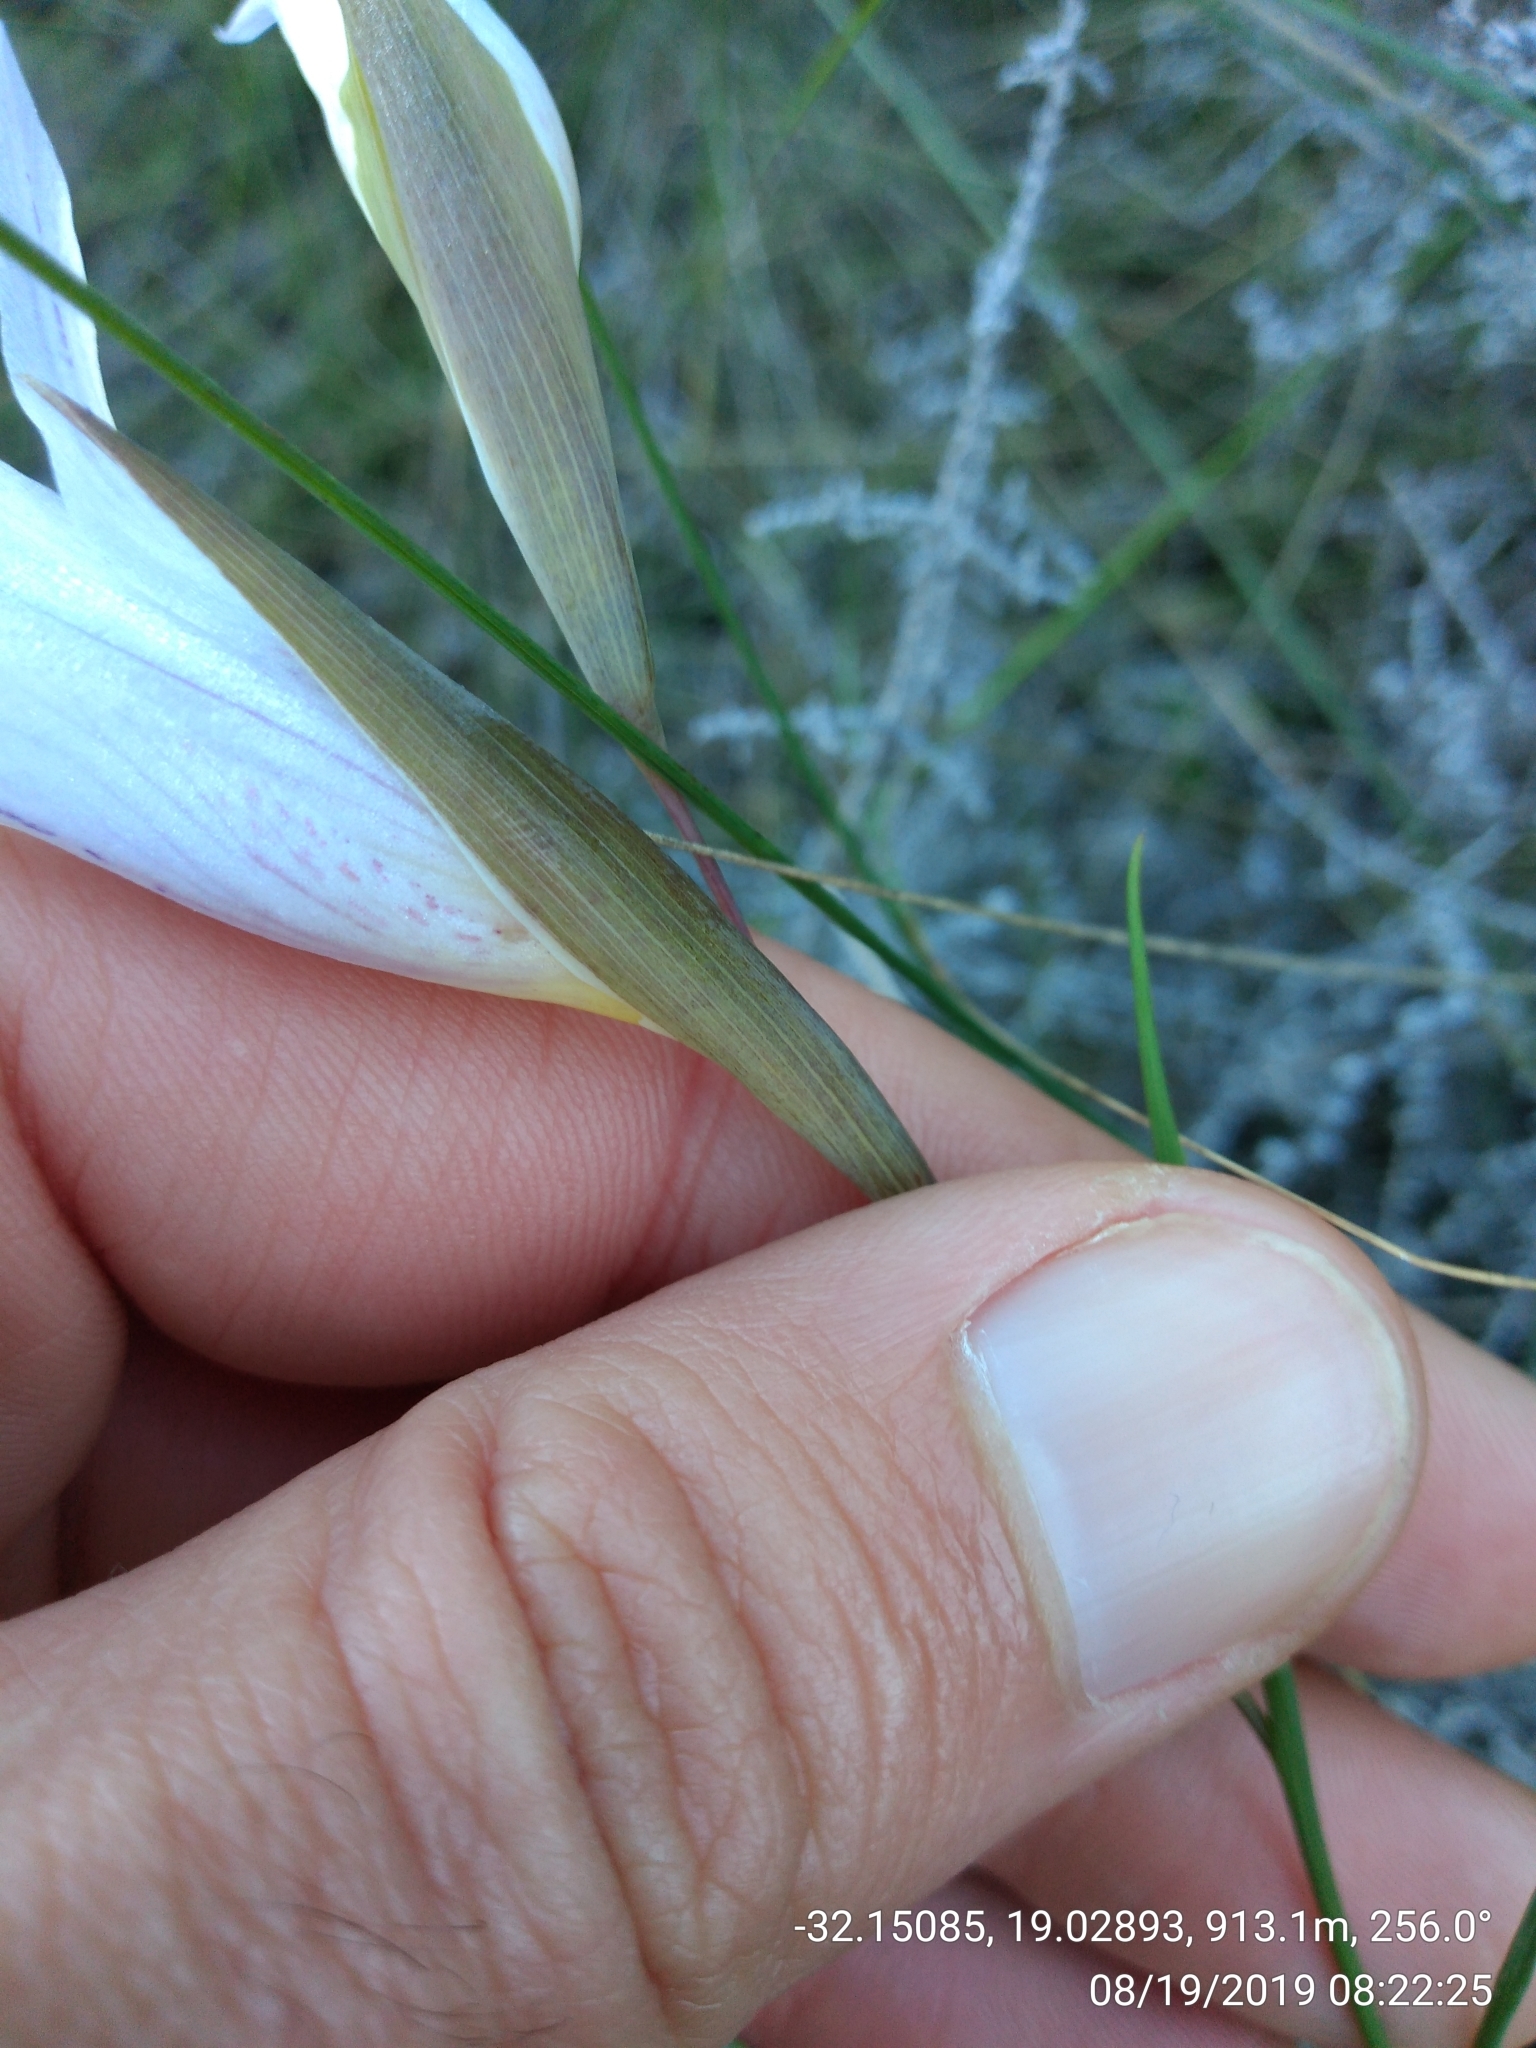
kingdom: Plantae
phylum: Tracheophyta
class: Liliopsida
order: Asparagales
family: Iridaceae
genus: Gladiolus
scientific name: Gladiolus violaceolineatus
